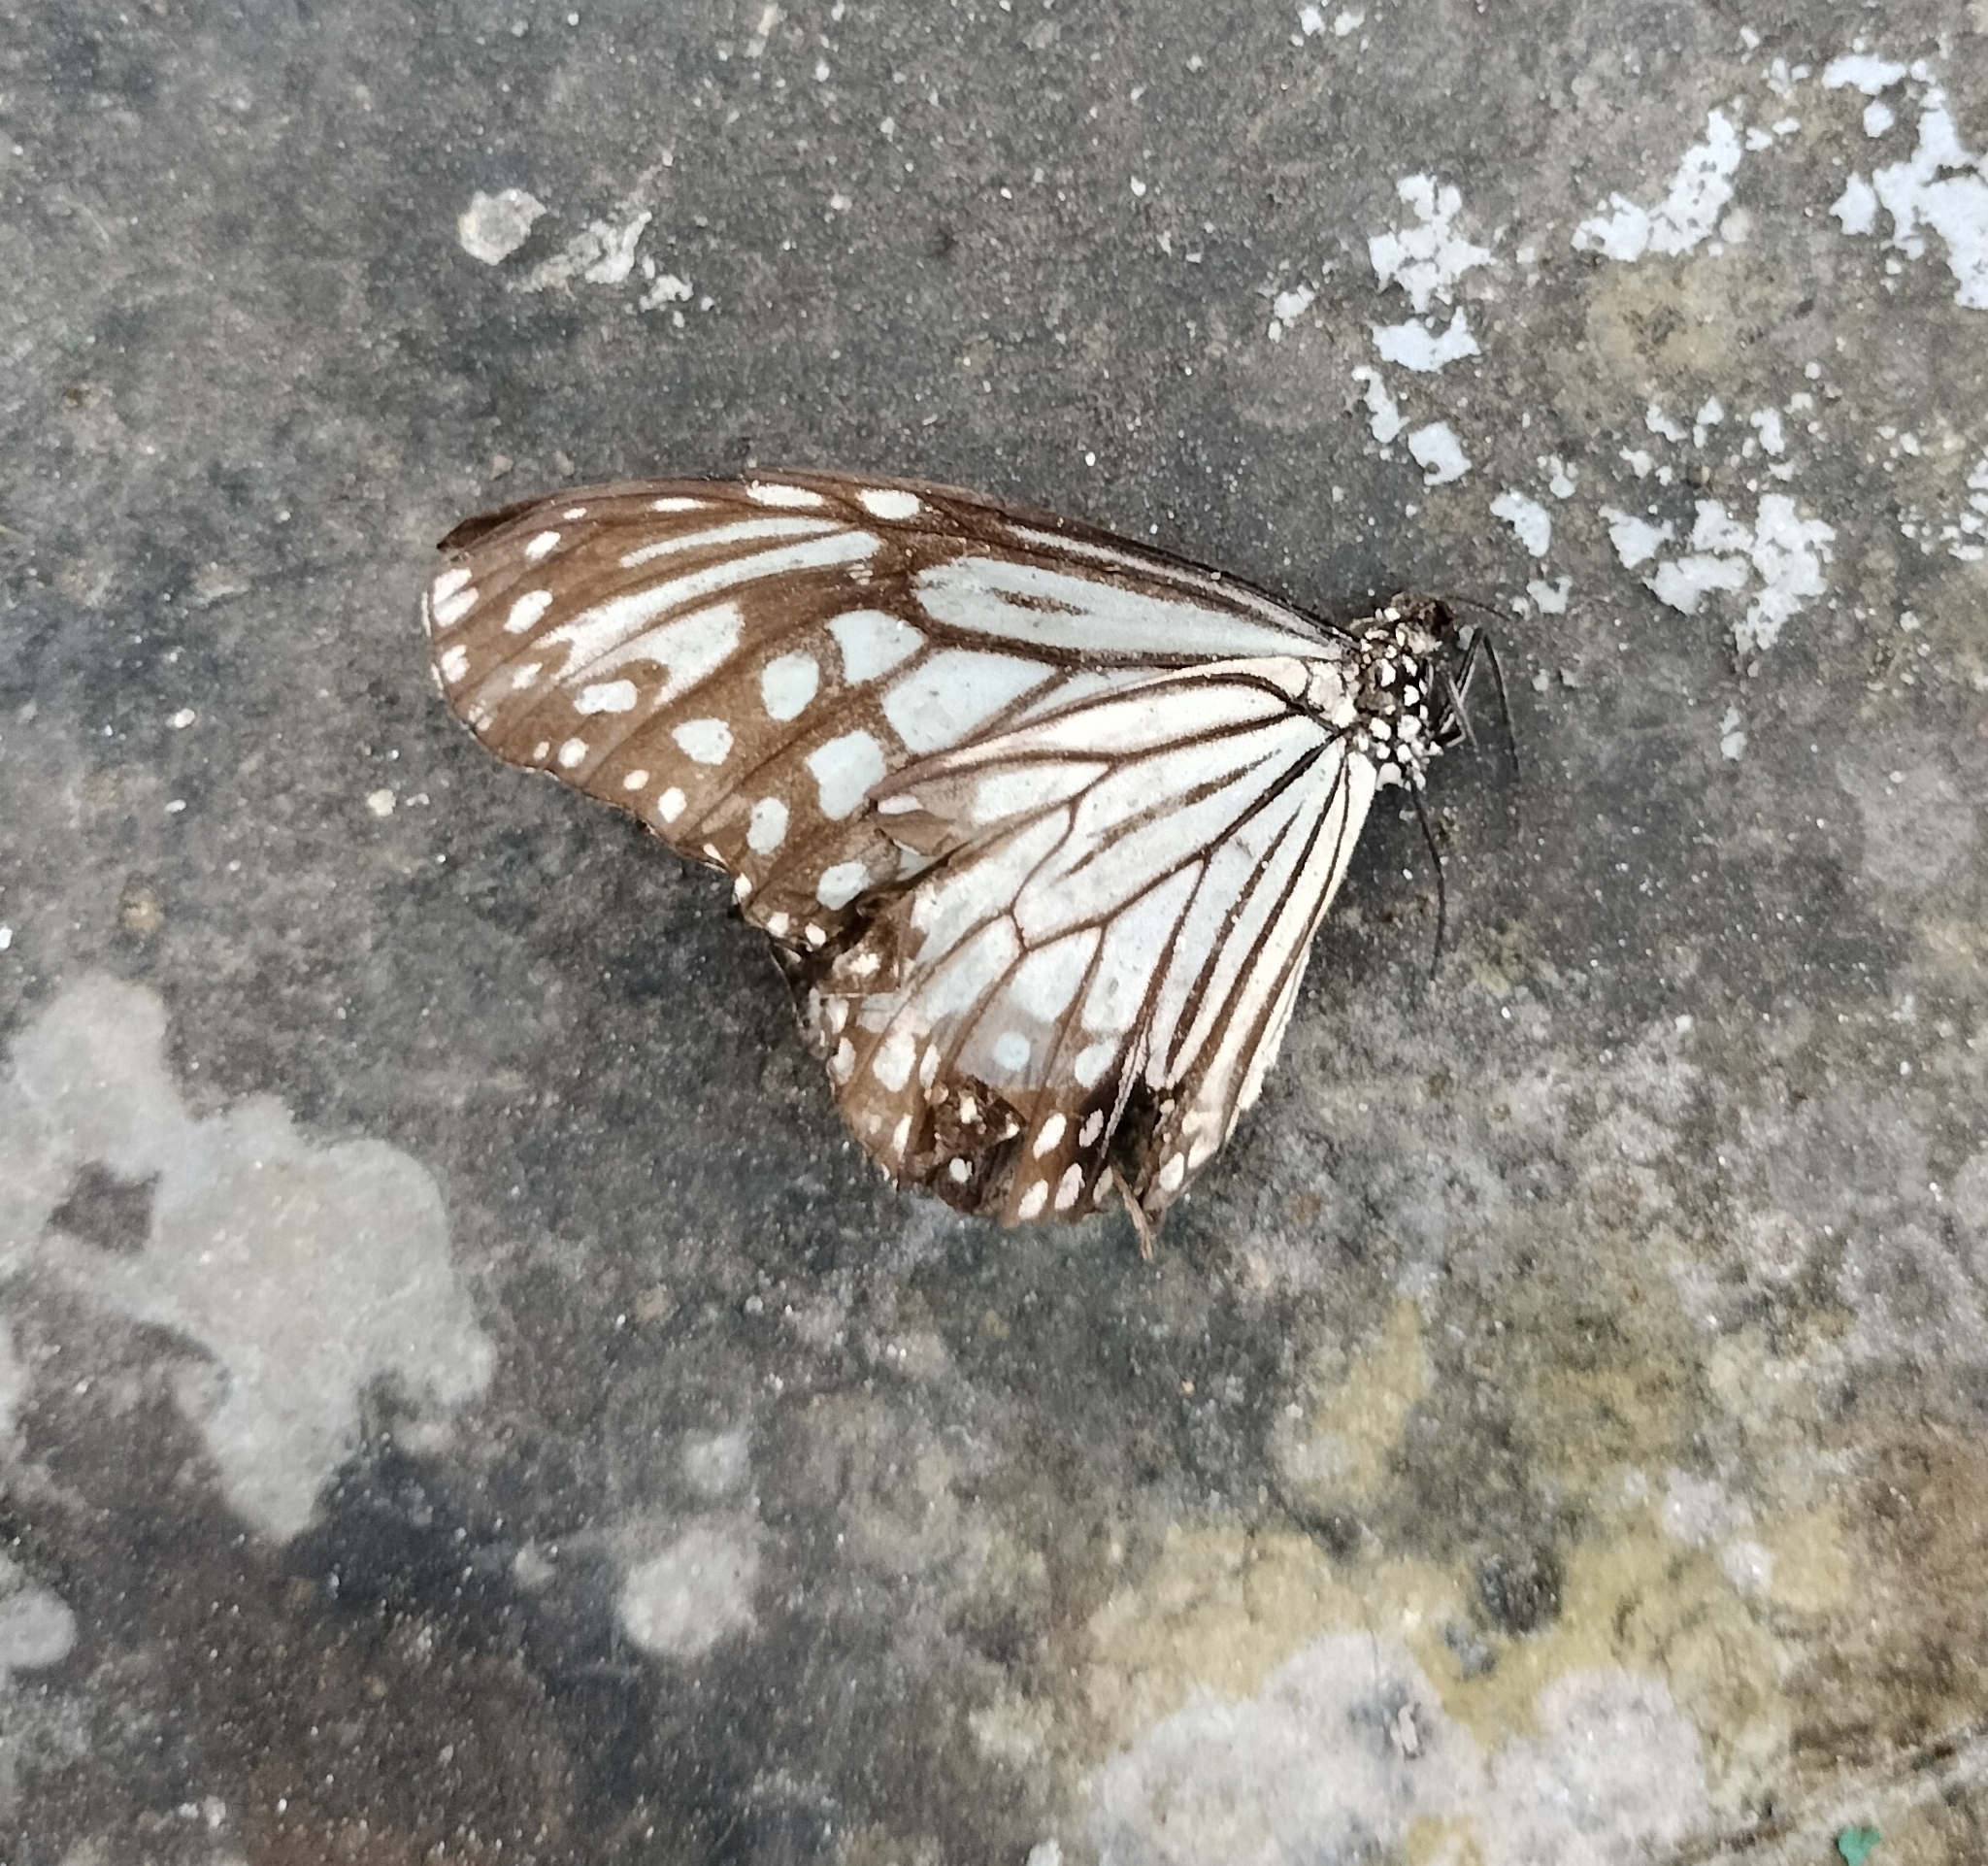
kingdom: Animalia
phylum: Arthropoda
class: Insecta
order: Lepidoptera
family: Nymphalidae
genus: Parantica
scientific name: Parantica aglea
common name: Glassy tiger
